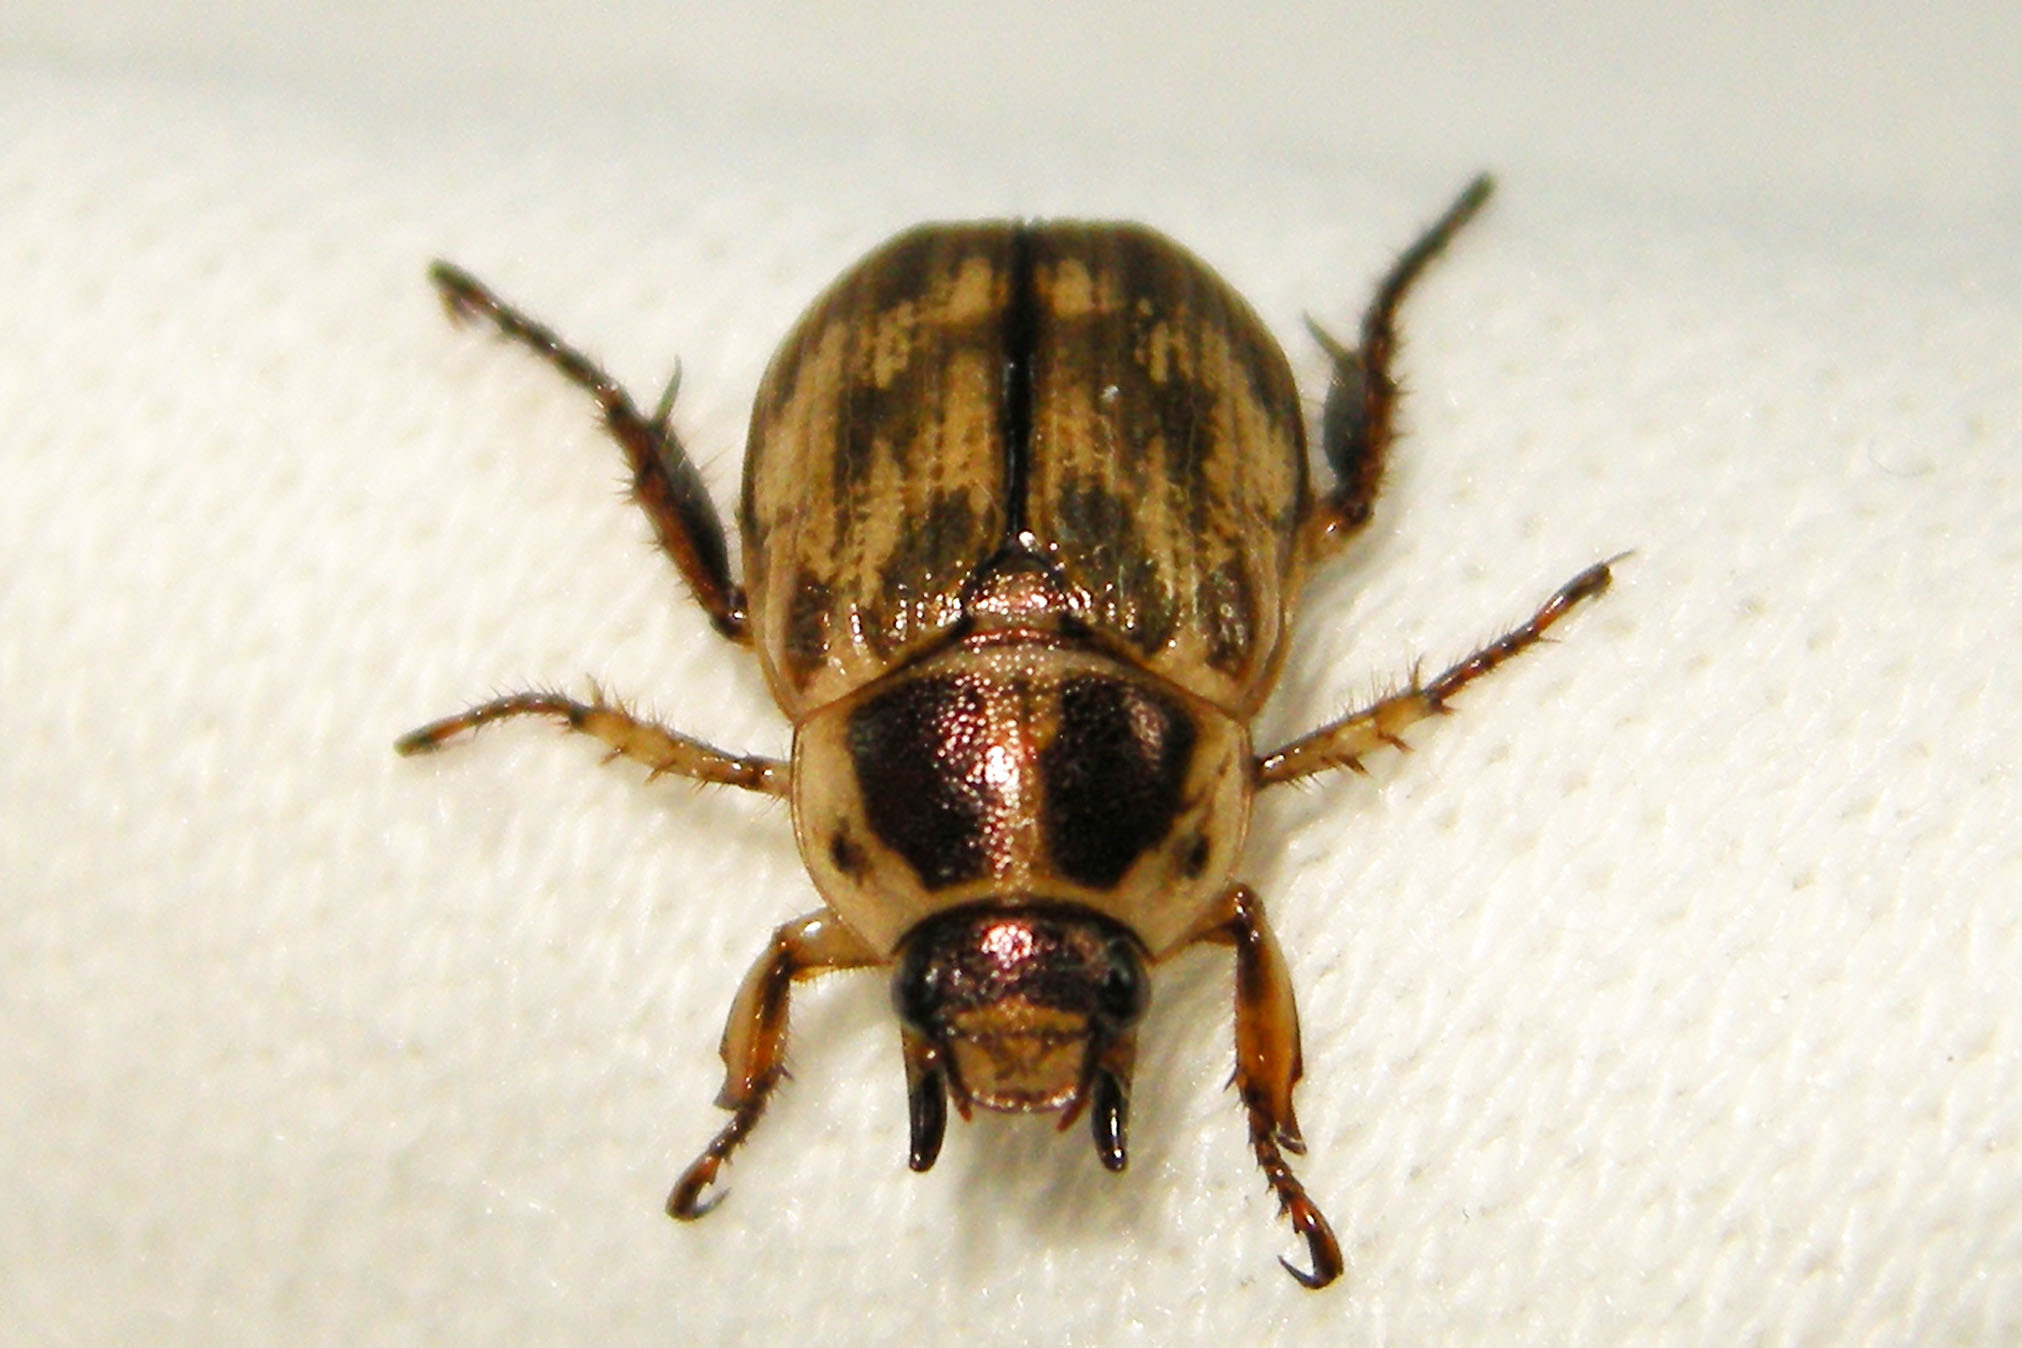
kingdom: Animalia
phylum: Arthropoda
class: Insecta
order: Coleoptera
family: Scarabaeidae
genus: Exomala
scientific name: Exomala orientalis
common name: Oriental beetle
